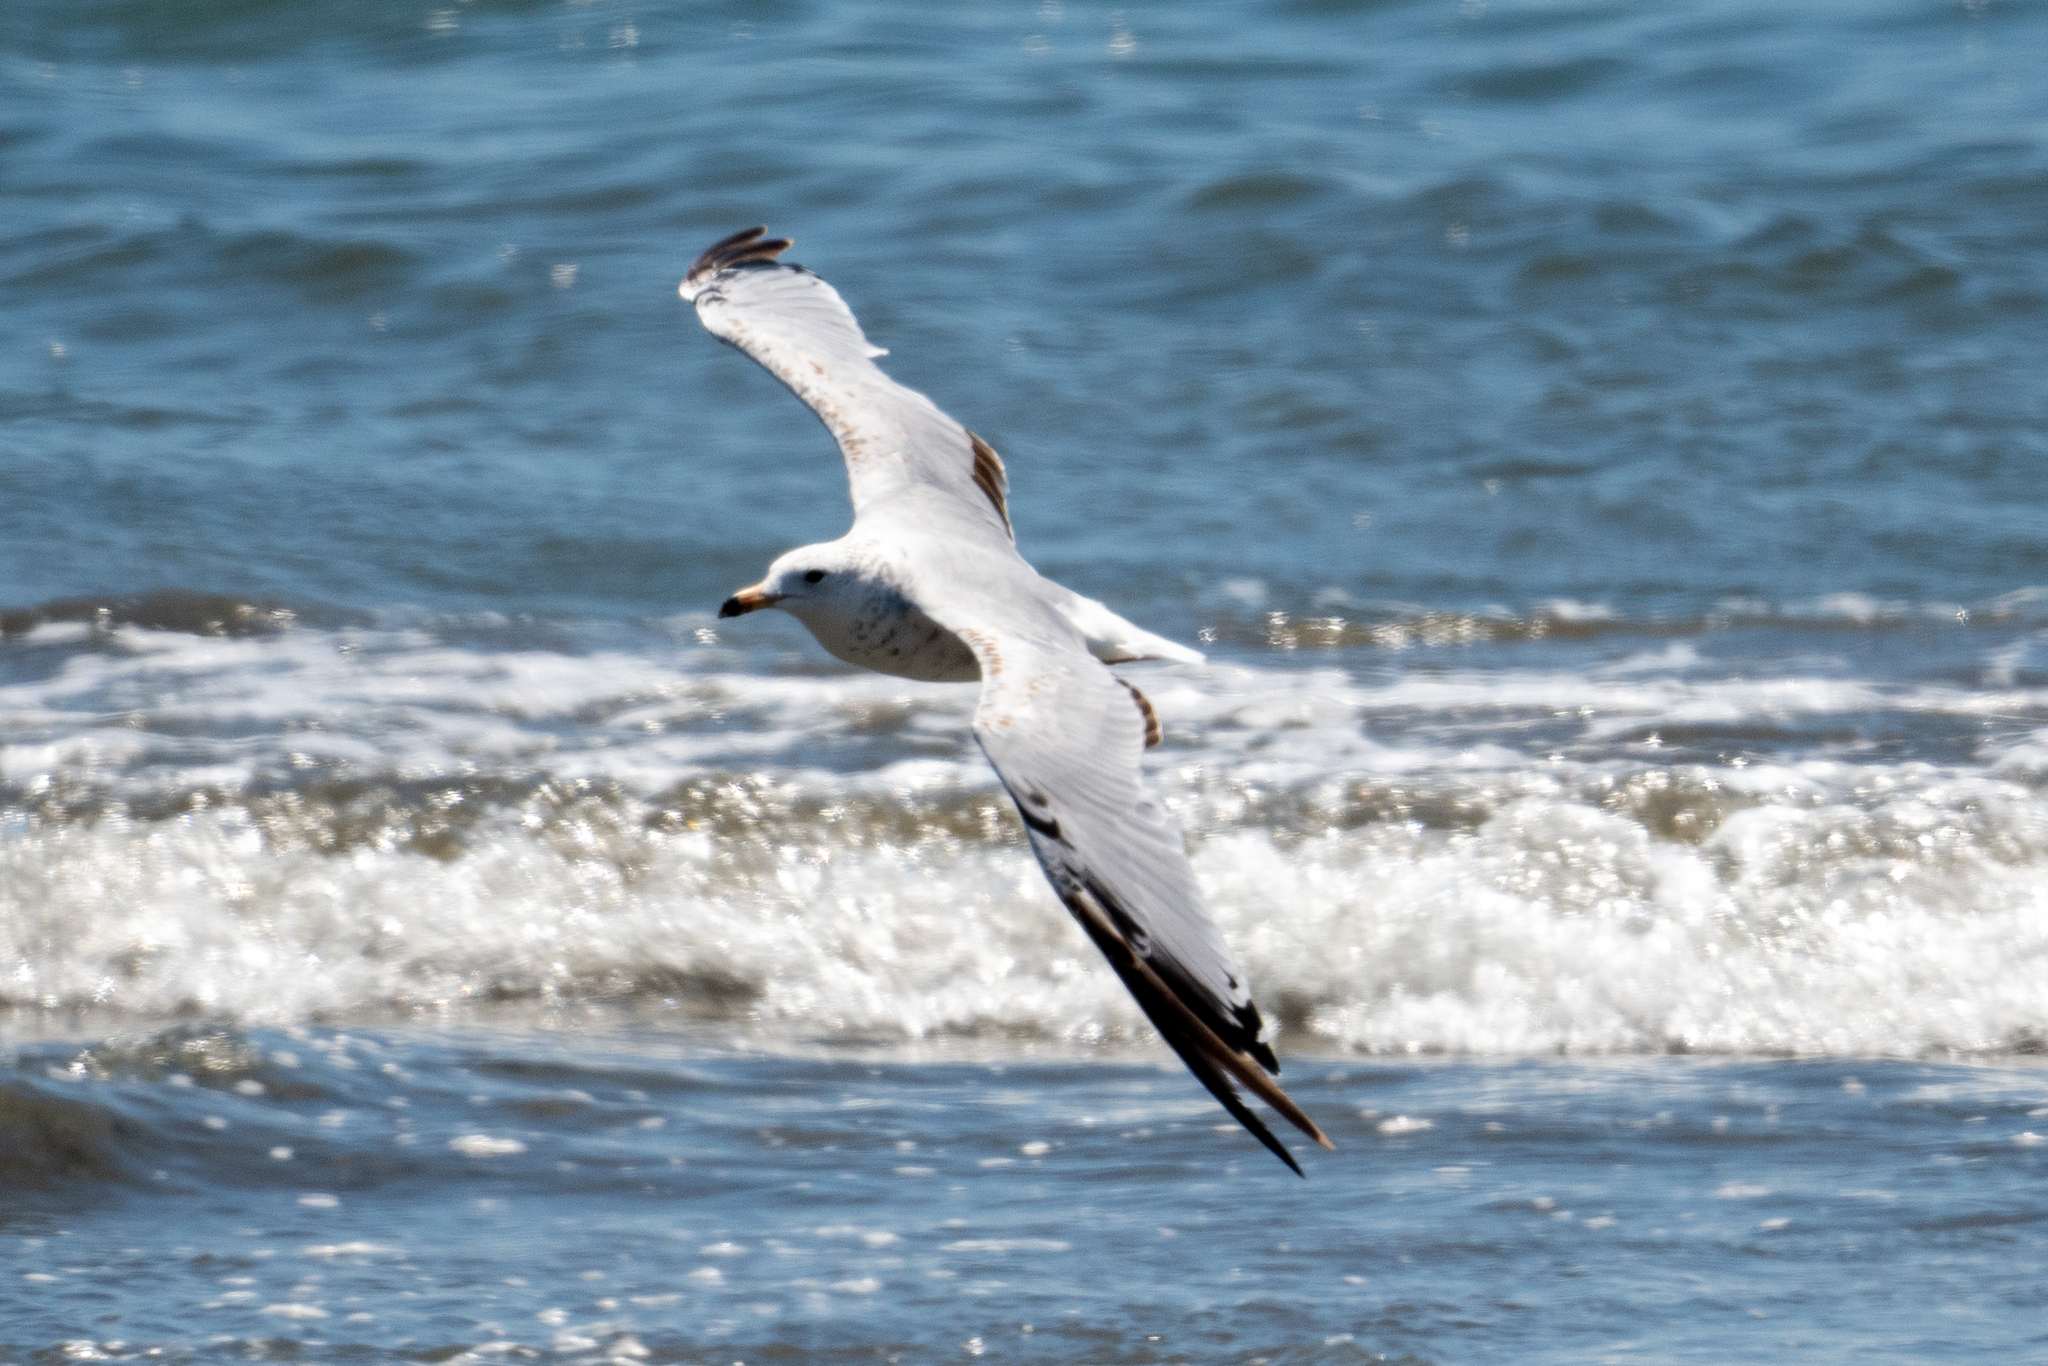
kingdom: Animalia
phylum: Chordata
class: Aves
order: Charadriiformes
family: Laridae
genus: Larus
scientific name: Larus delawarensis
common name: Ring-billed gull
